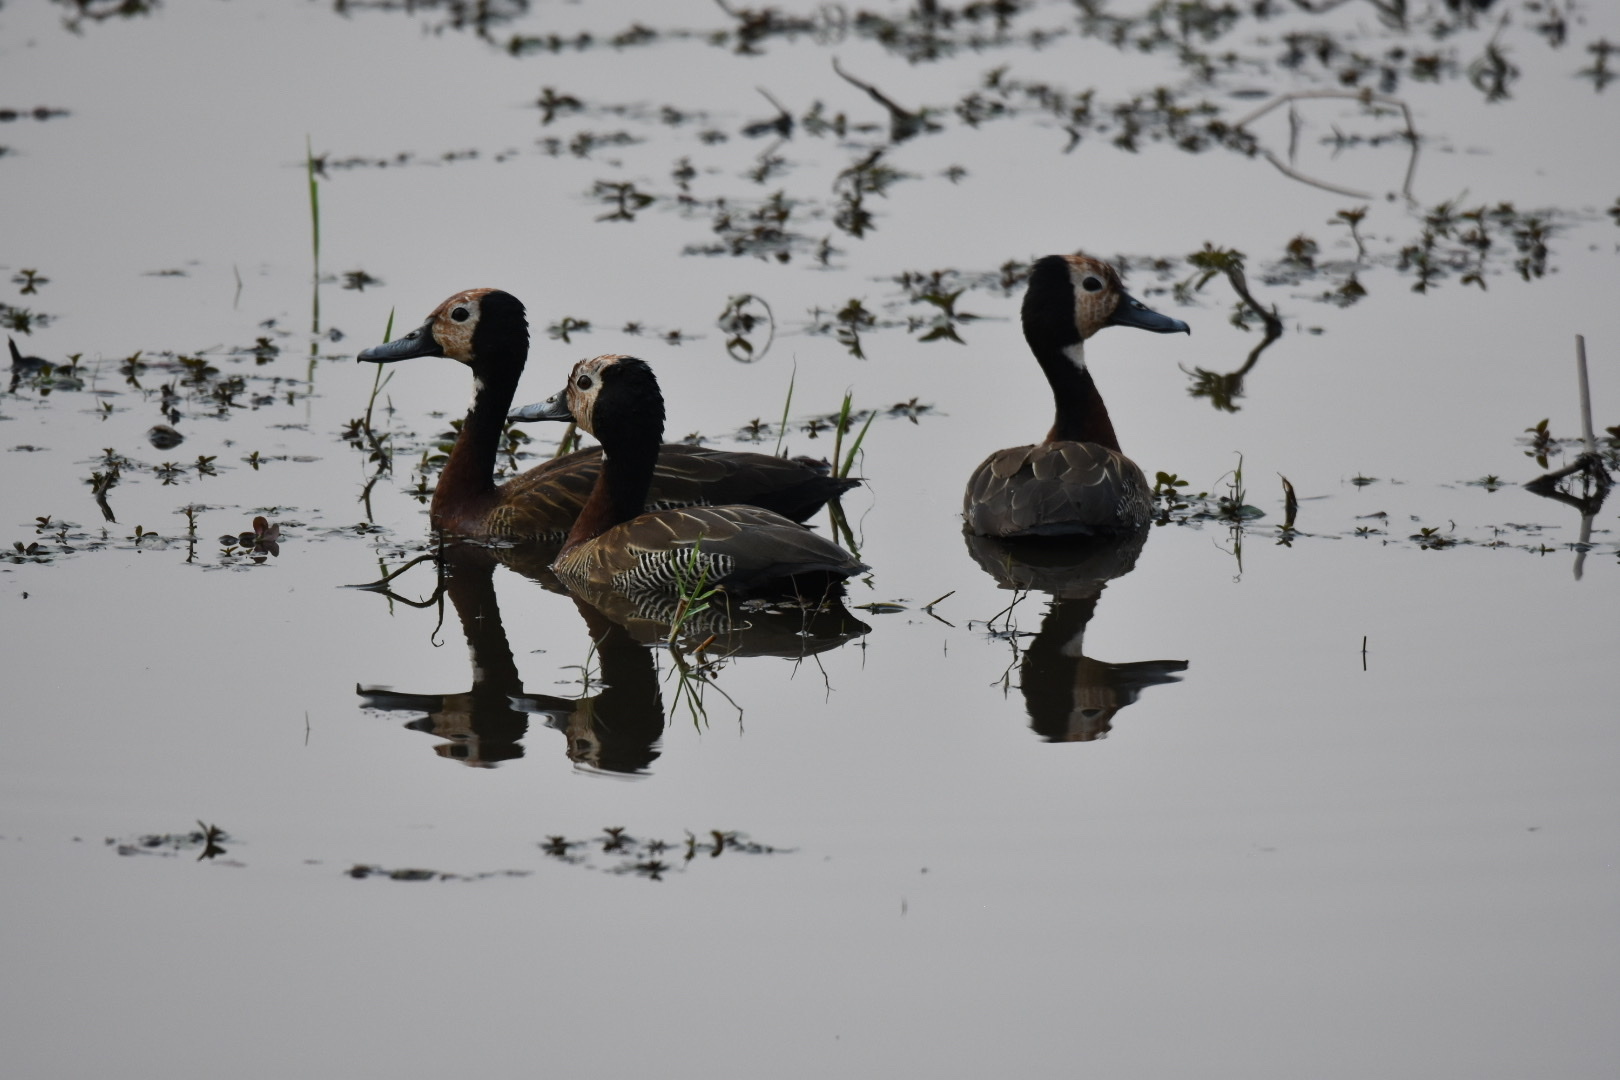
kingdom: Animalia
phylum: Chordata
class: Aves
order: Anseriformes
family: Anatidae
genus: Dendrocygna
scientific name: Dendrocygna viduata
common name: White-faced whistling duck
